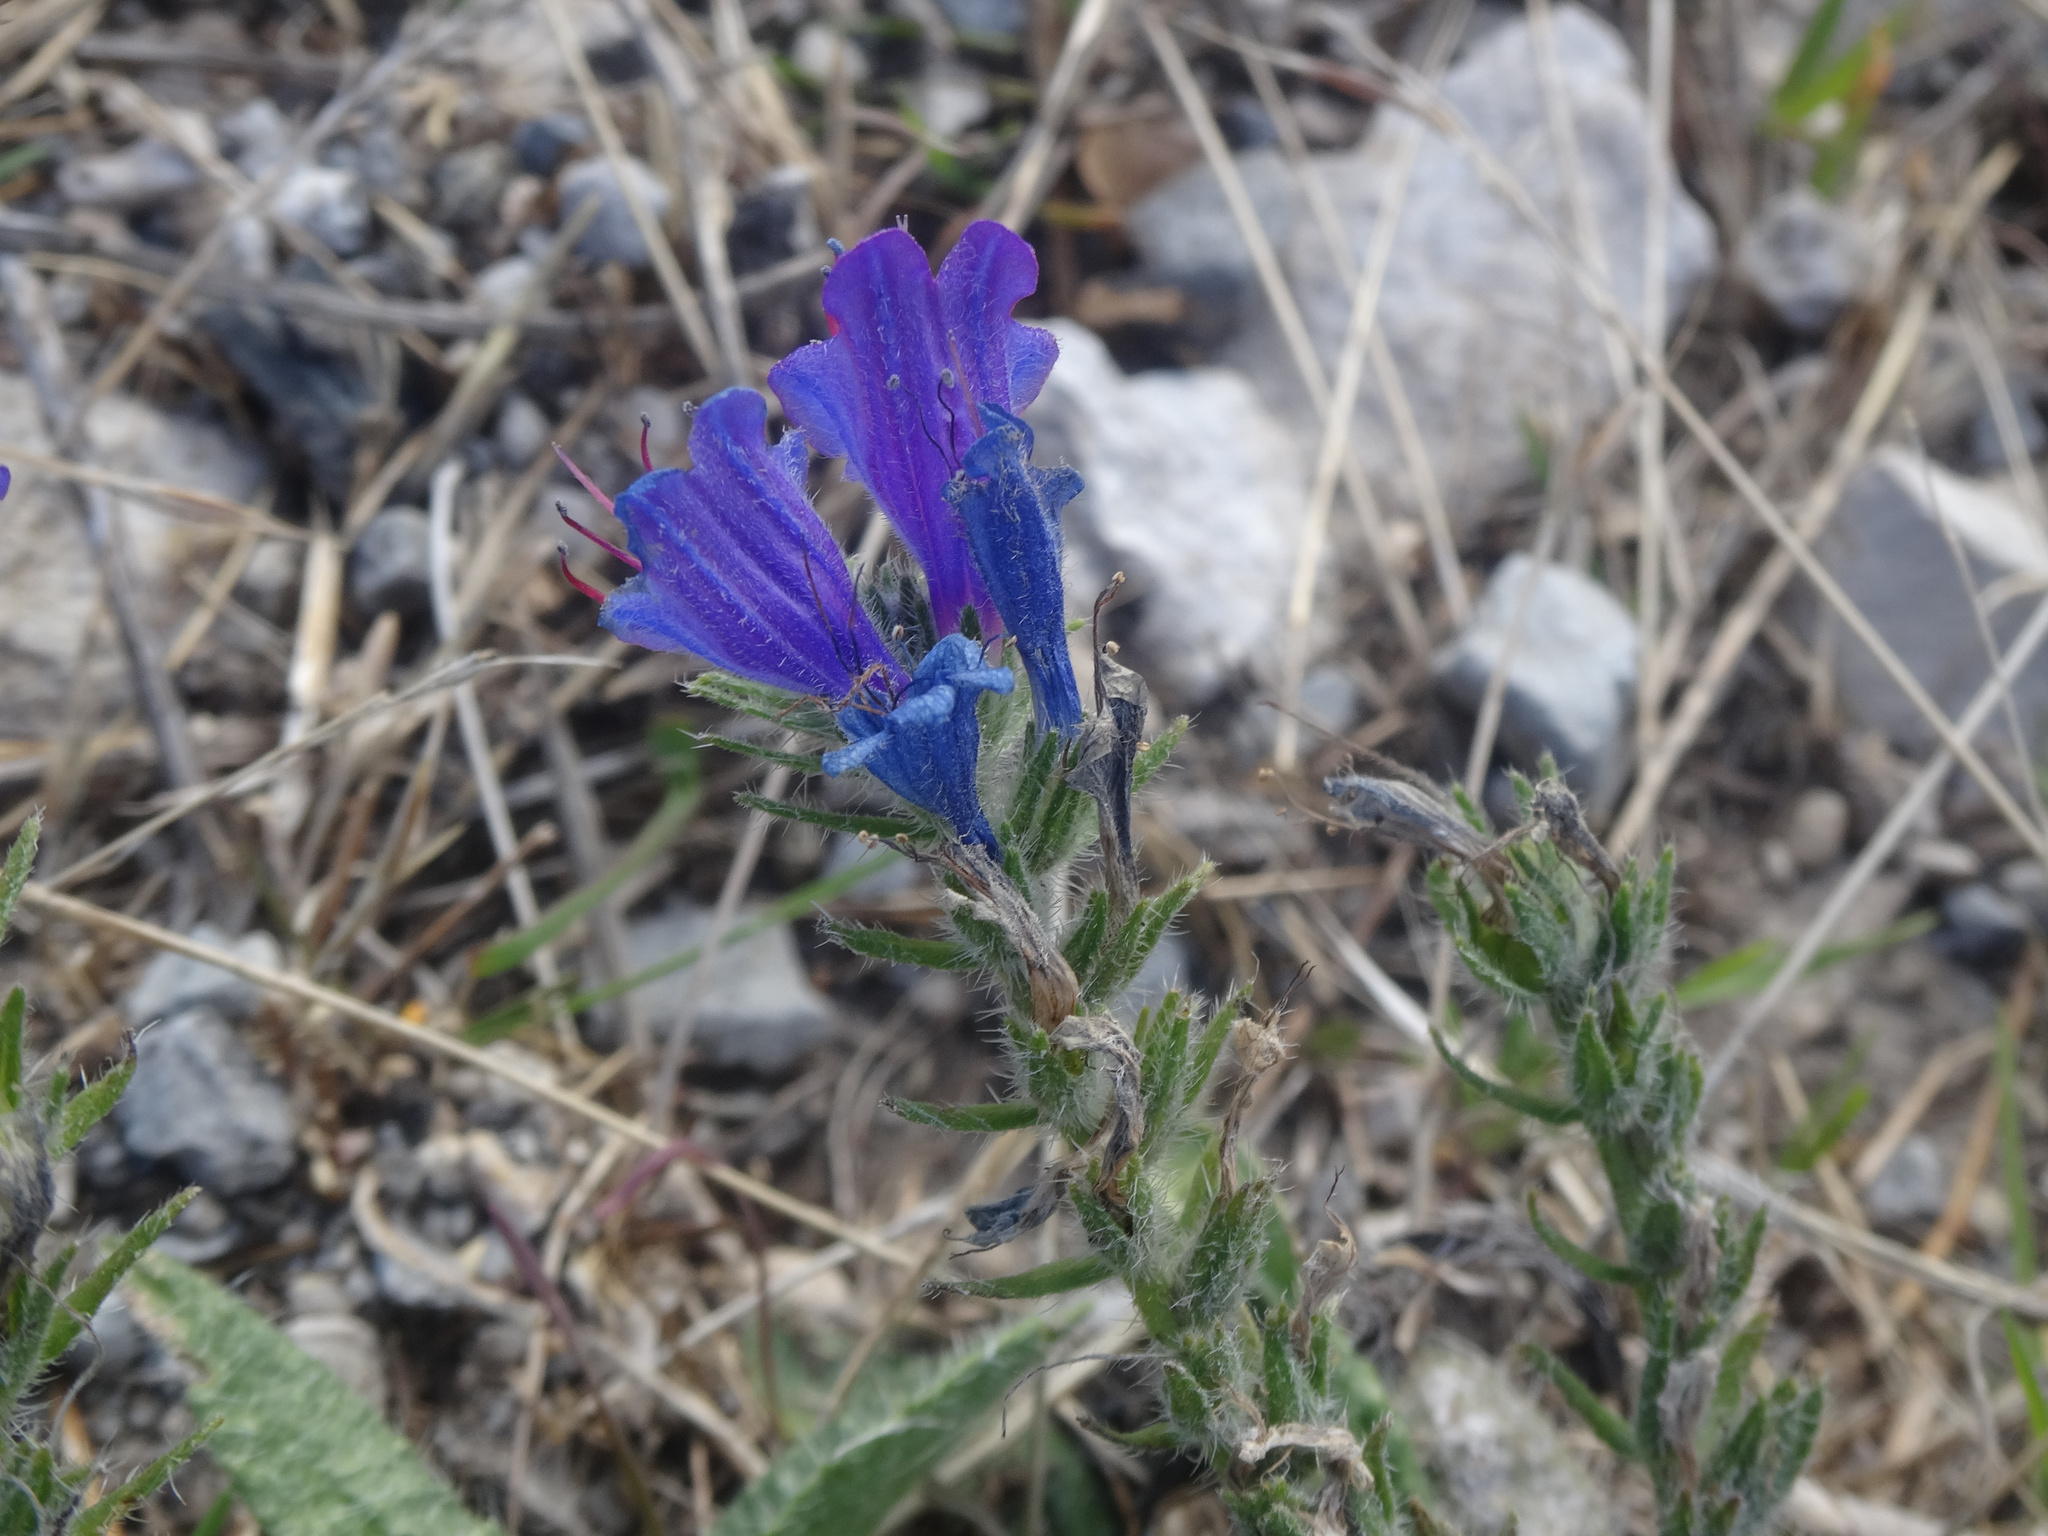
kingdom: Plantae
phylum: Tracheophyta
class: Magnoliopsida
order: Boraginales
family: Boraginaceae
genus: Echium
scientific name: Echium vulgare
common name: Common viper's bugloss
